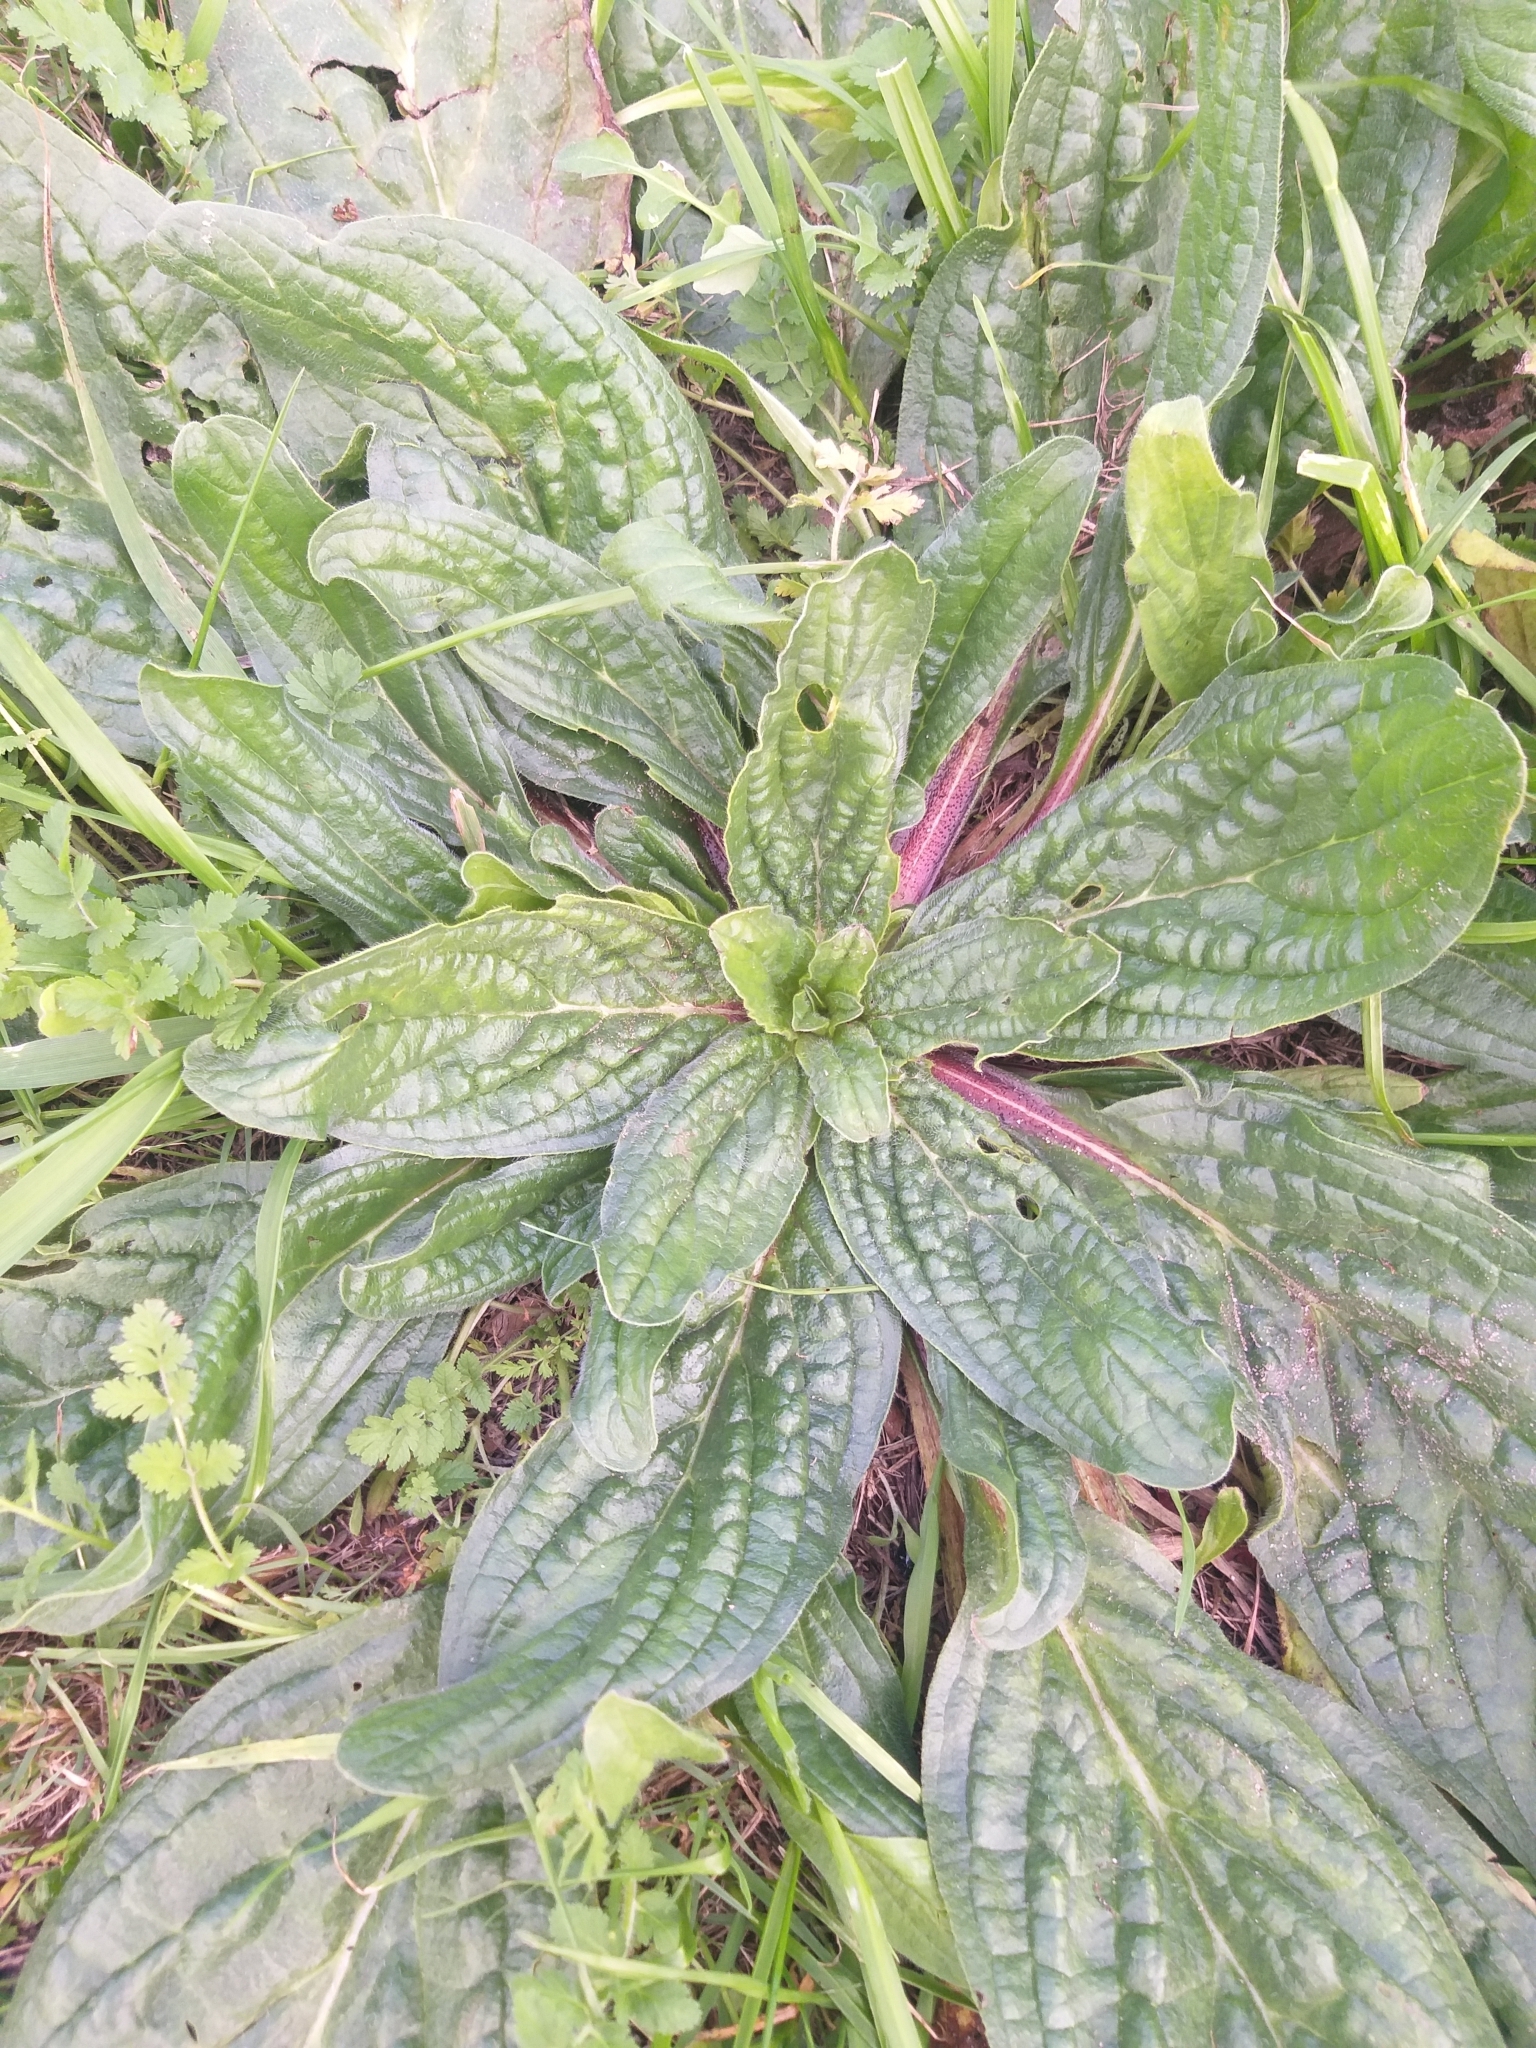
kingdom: Plantae
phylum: Tracheophyta
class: Magnoliopsida
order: Boraginales
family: Boraginaceae
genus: Echium
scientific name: Echium plantagineum
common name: Purple viper's-bugloss
